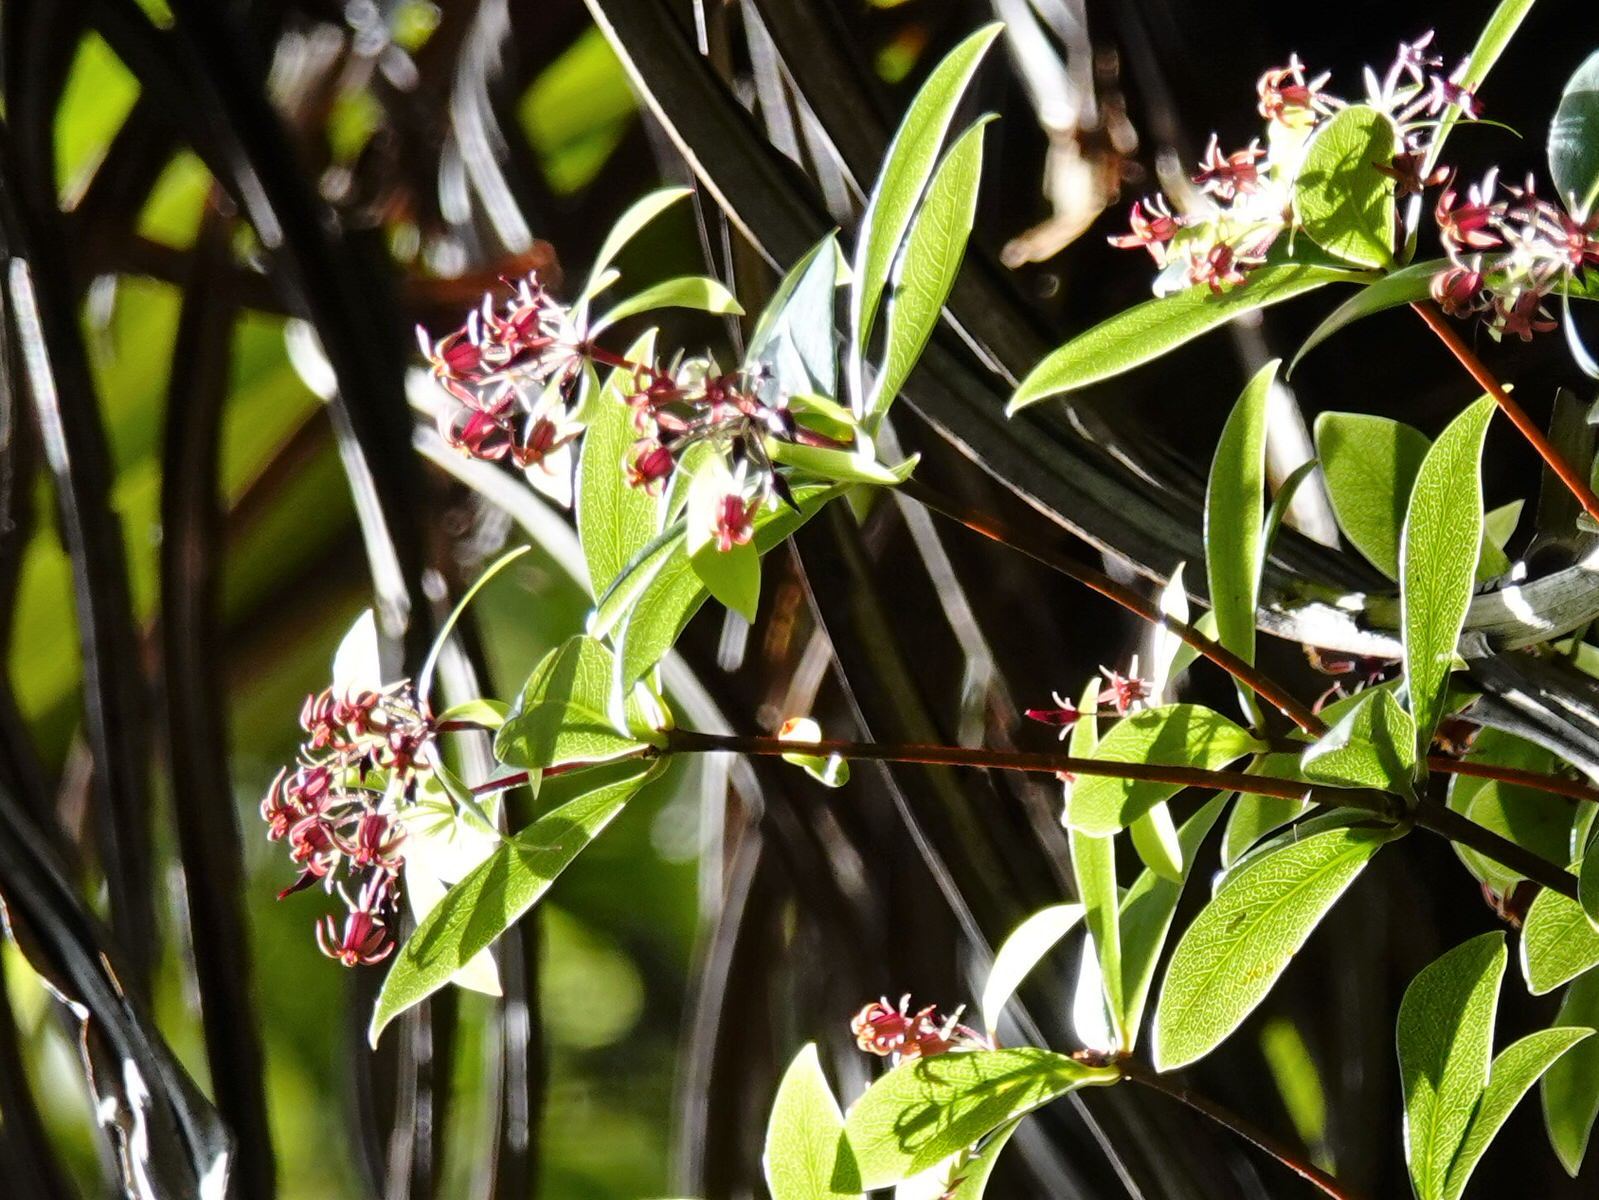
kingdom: Plantae
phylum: Tracheophyta
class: Magnoliopsida
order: Apiales
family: Pittosporaceae
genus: Pittosporum
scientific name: Pittosporum cornifolium
